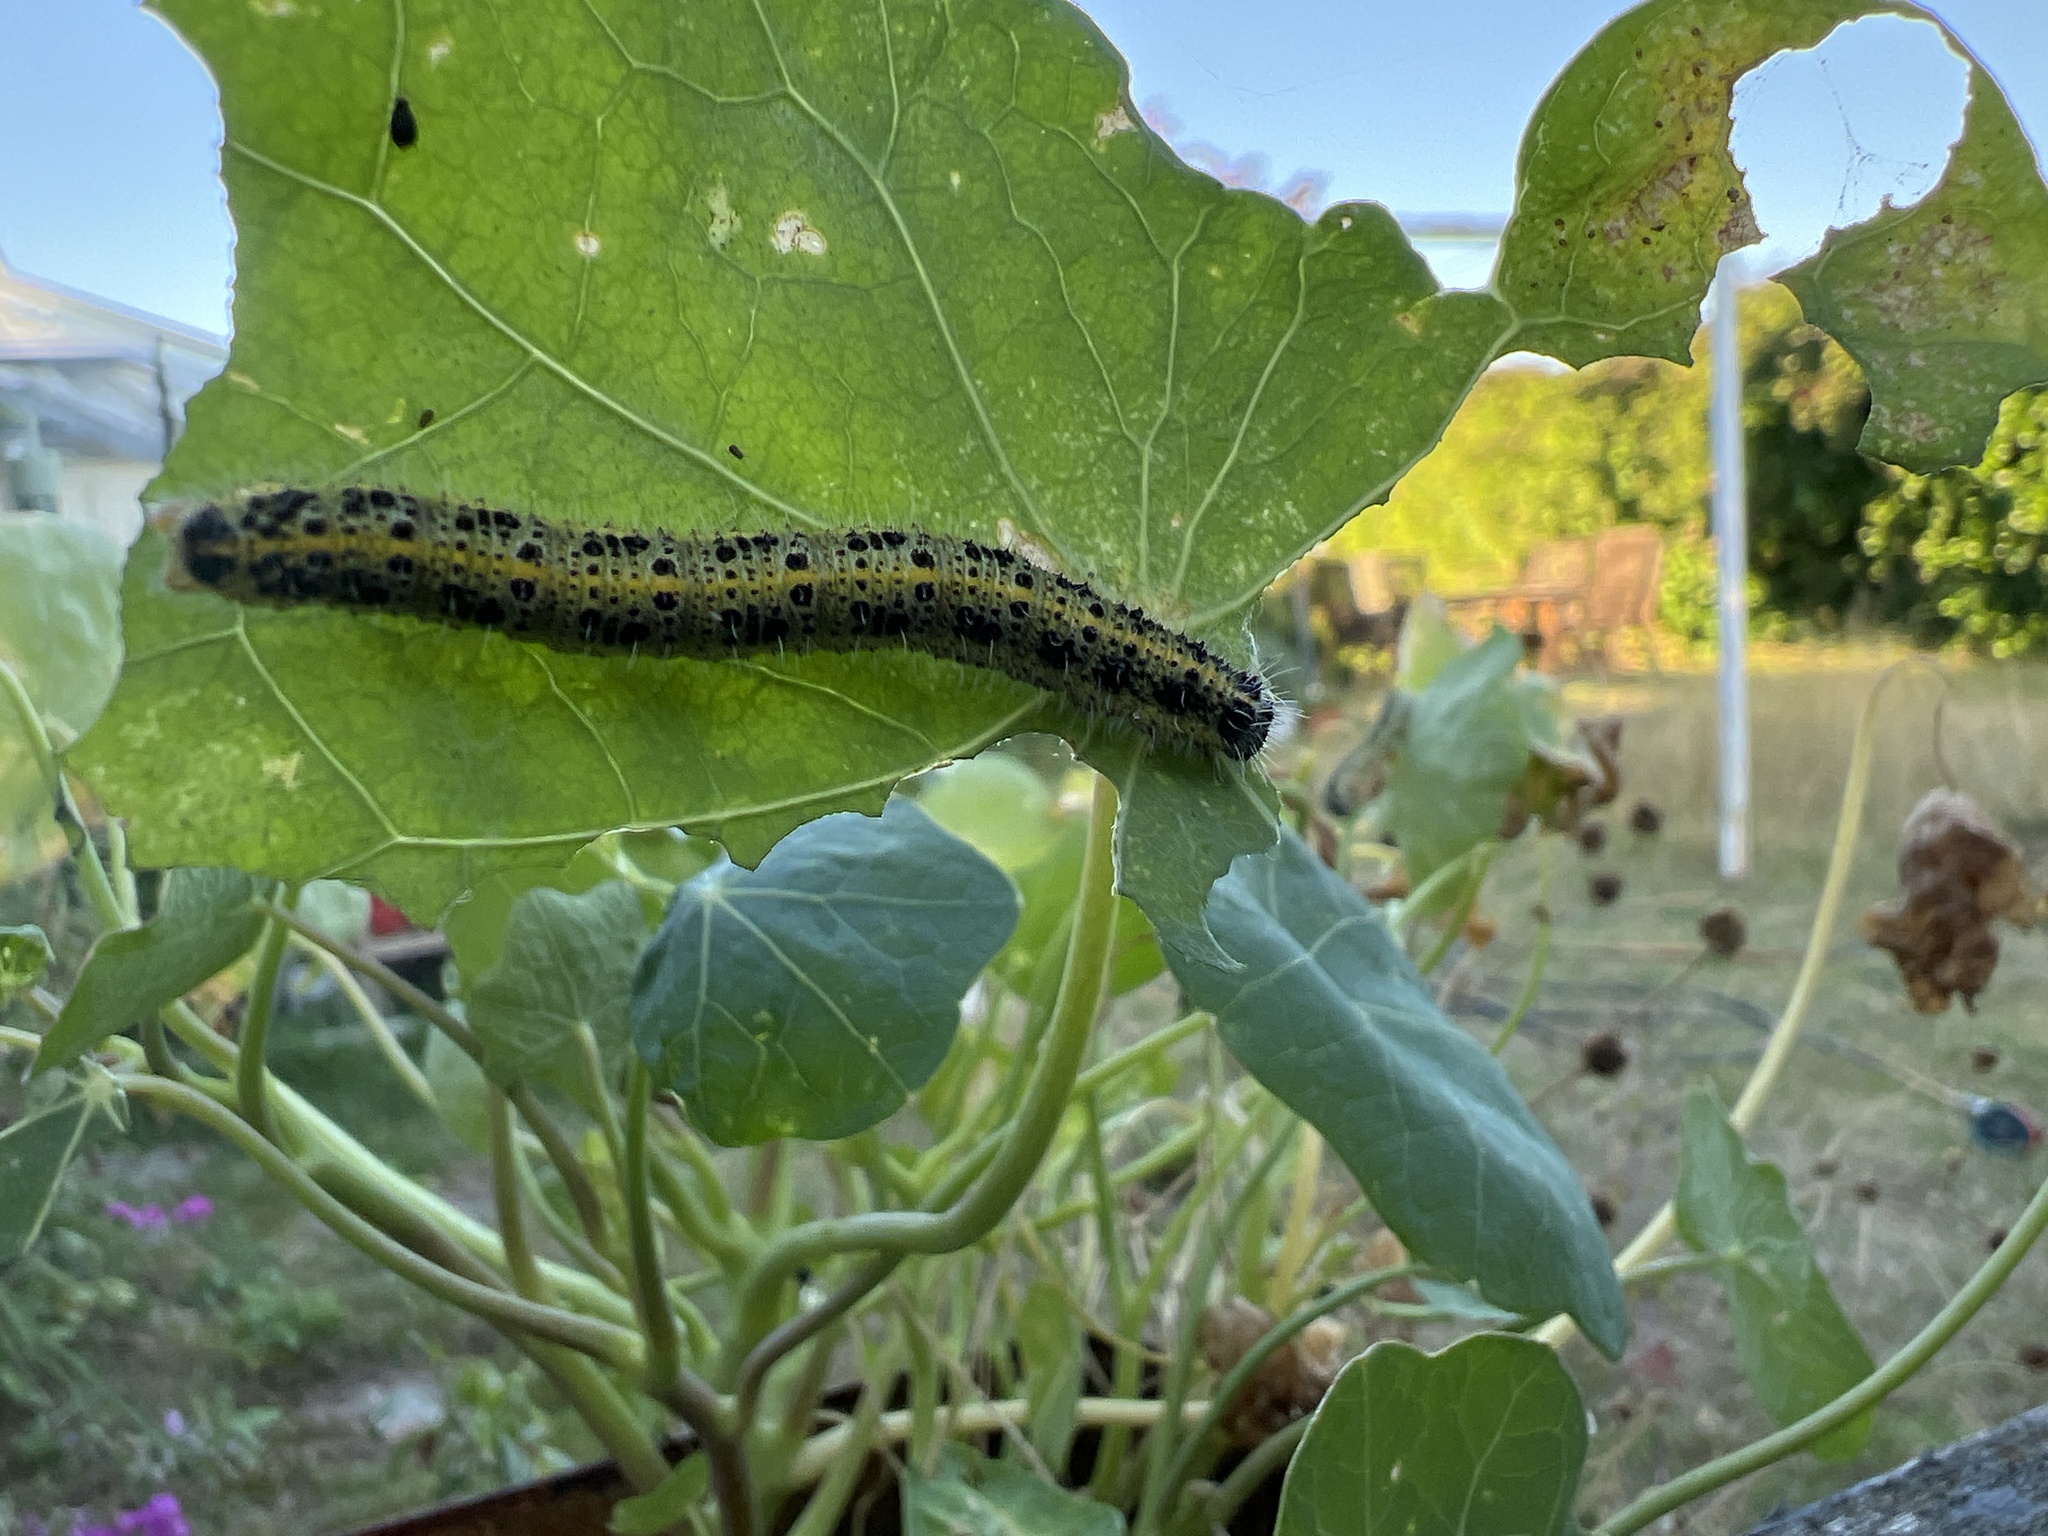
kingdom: Animalia
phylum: Arthropoda
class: Insecta
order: Lepidoptera
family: Pieridae
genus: Pieris
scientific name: Pieris brassicae
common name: Large white
